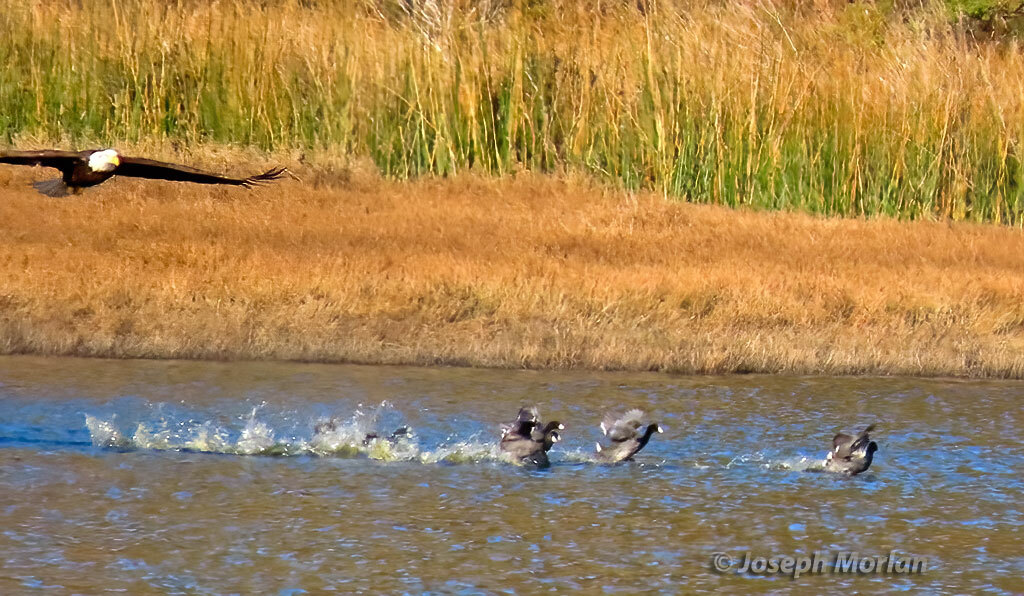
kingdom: Animalia
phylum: Chordata
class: Aves
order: Accipitriformes
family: Accipitridae
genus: Haliaeetus
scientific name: Haliaeetus leucocephalus
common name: Bald eagle
